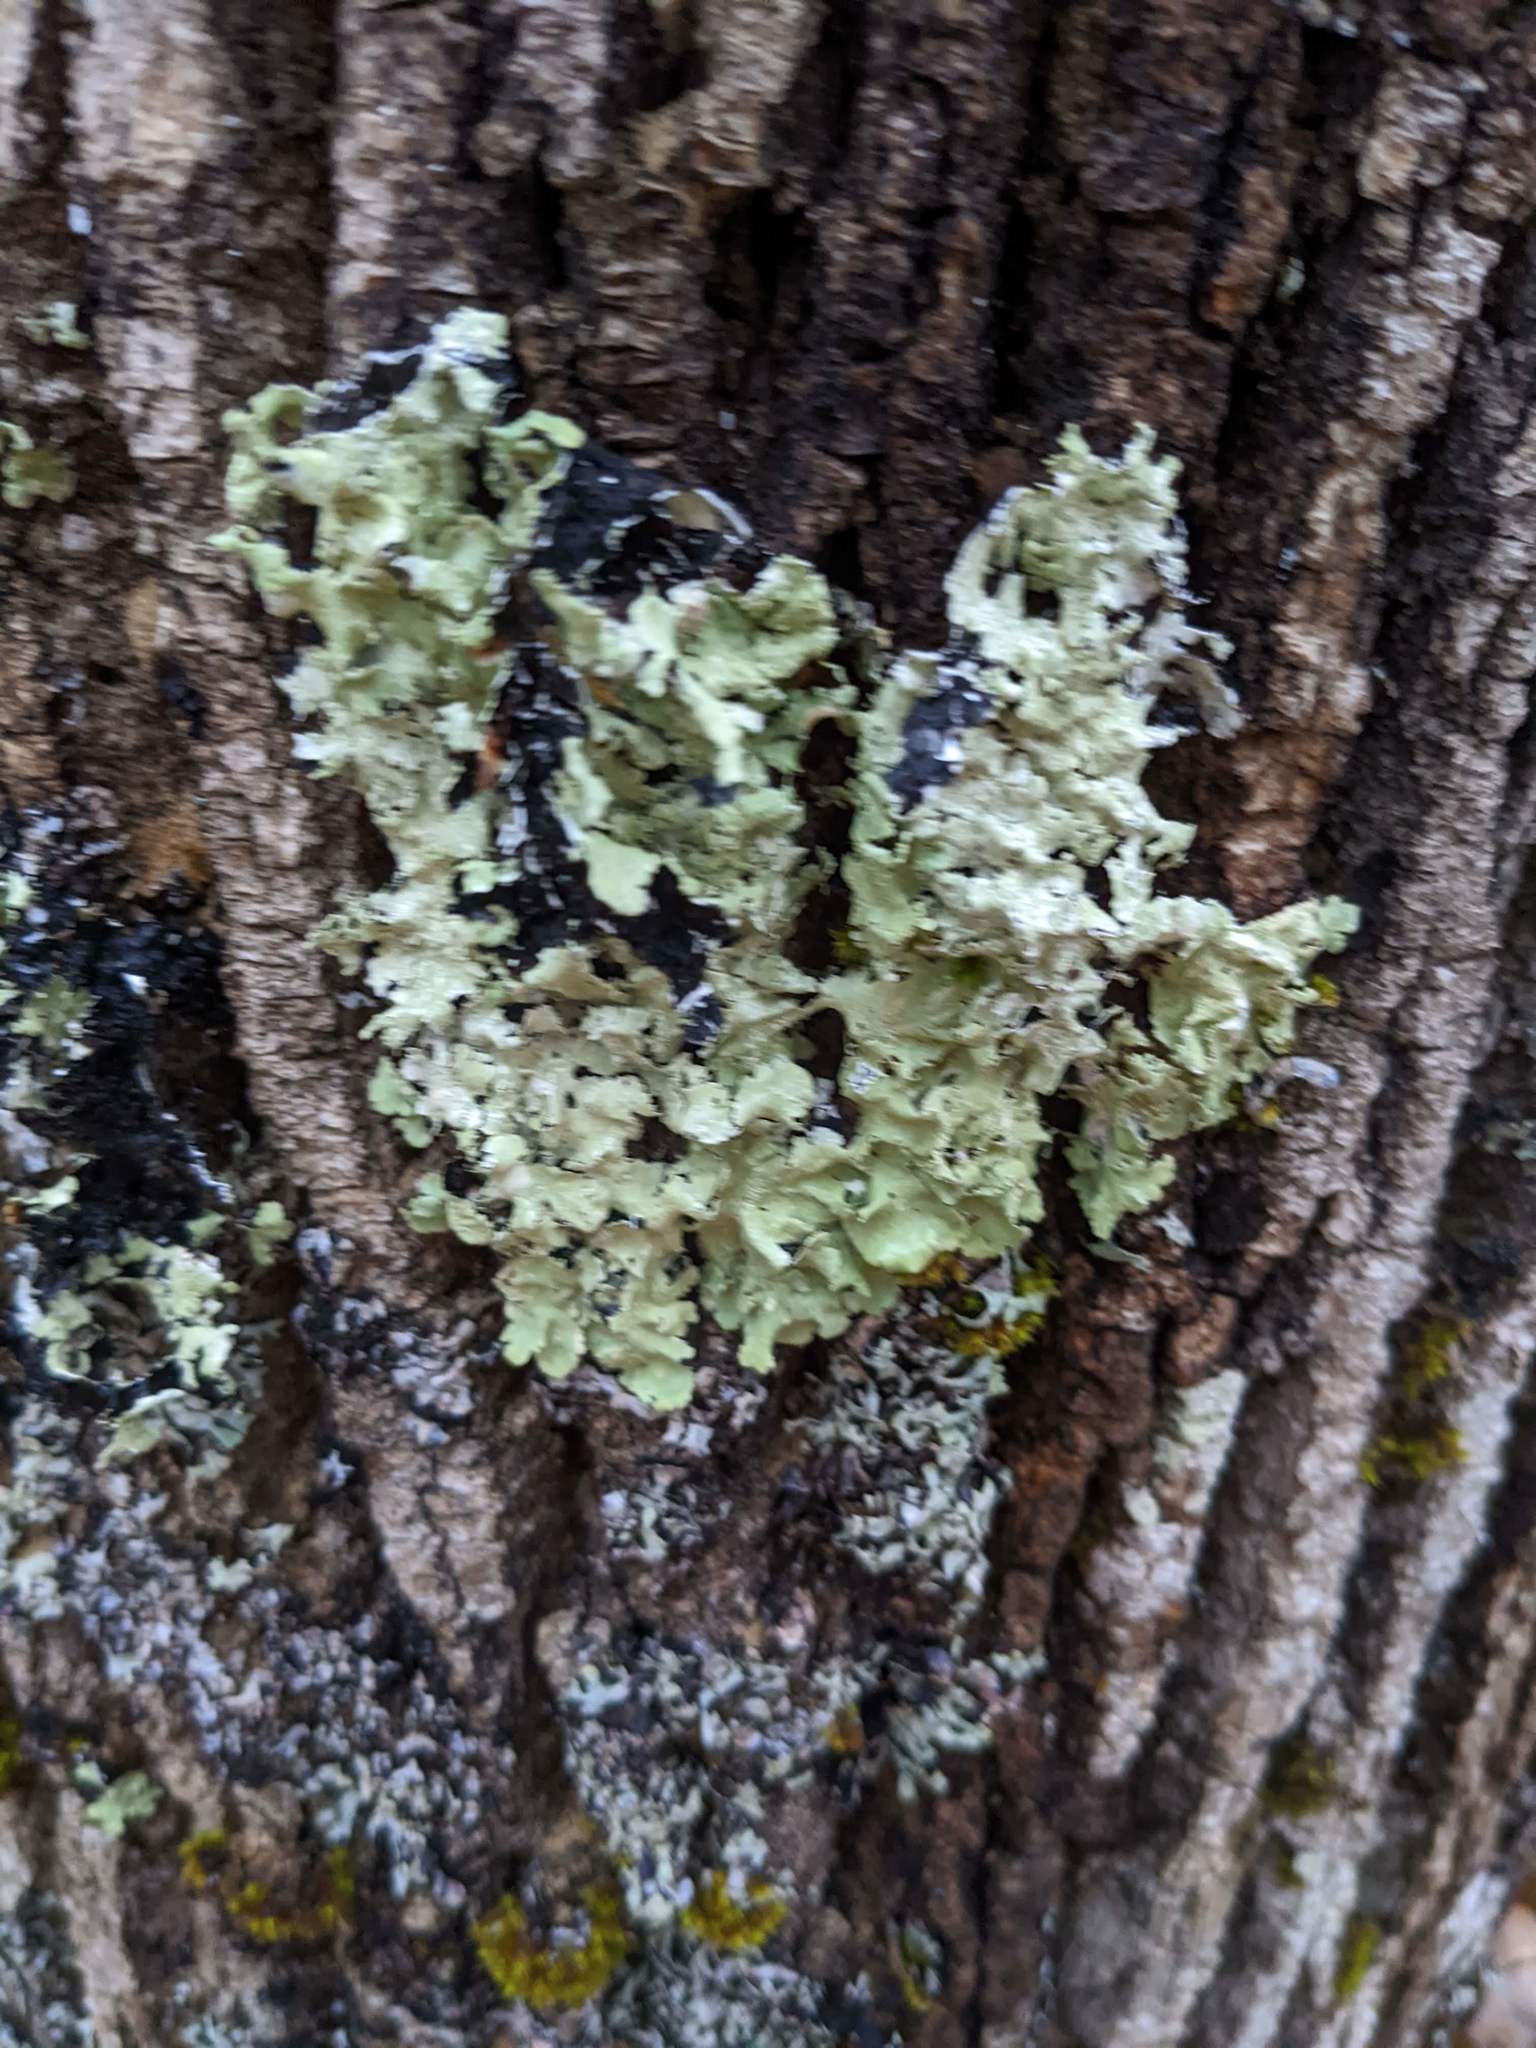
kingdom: Fungi
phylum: Ascomycota
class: Lecanoromycetes
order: Lecanorales
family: Parmeliaceae
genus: Flavoparmelia
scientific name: Flavoparmelia caperata
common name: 40-mile per hour lichen
